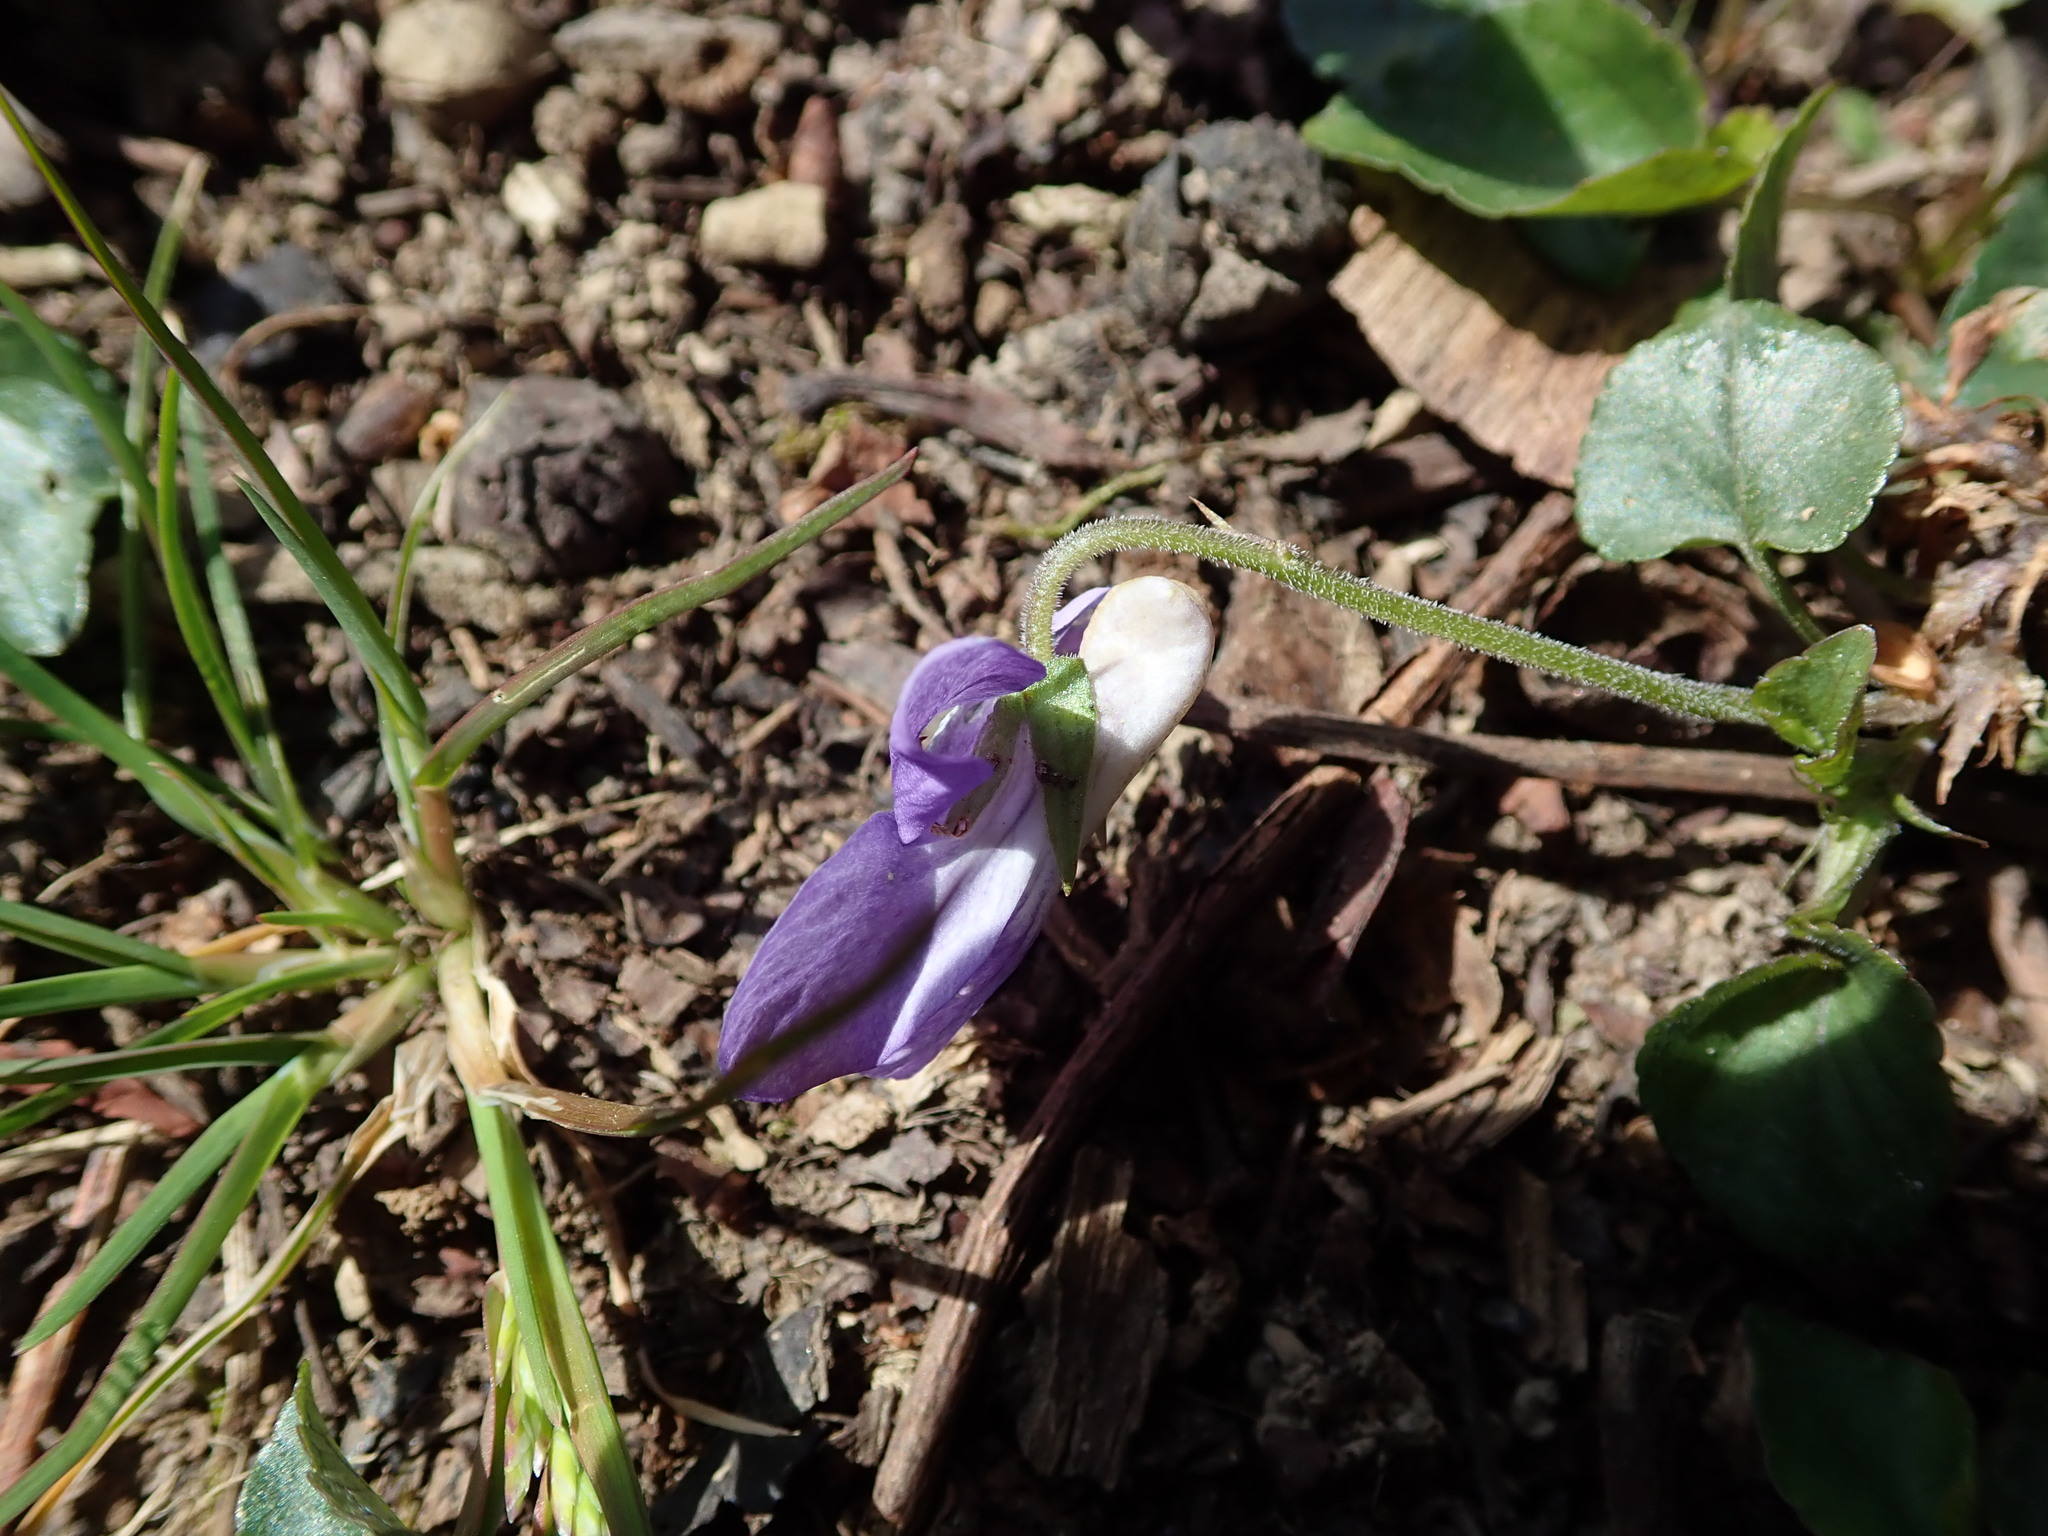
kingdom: Plantae
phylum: Tracheophyta
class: Magnoliopsida
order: Malpighiales
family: Violaceae
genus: Viola
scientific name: Viola riviniana
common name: Common dog-violet
